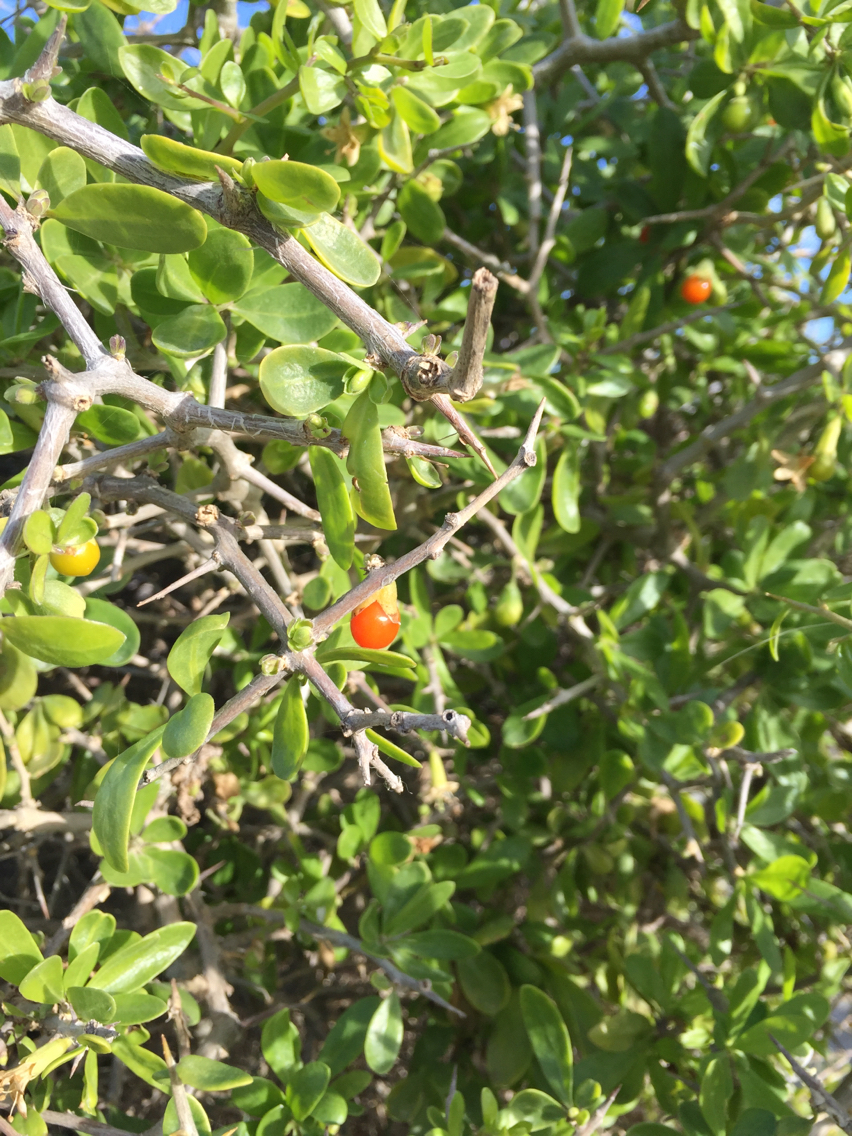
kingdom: Plantae
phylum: Tracheophyta
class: Magnoliopsida
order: Solanales
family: Solanaceae
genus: Lycium
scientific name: Lycium ferocissimum
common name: African boxthorn
